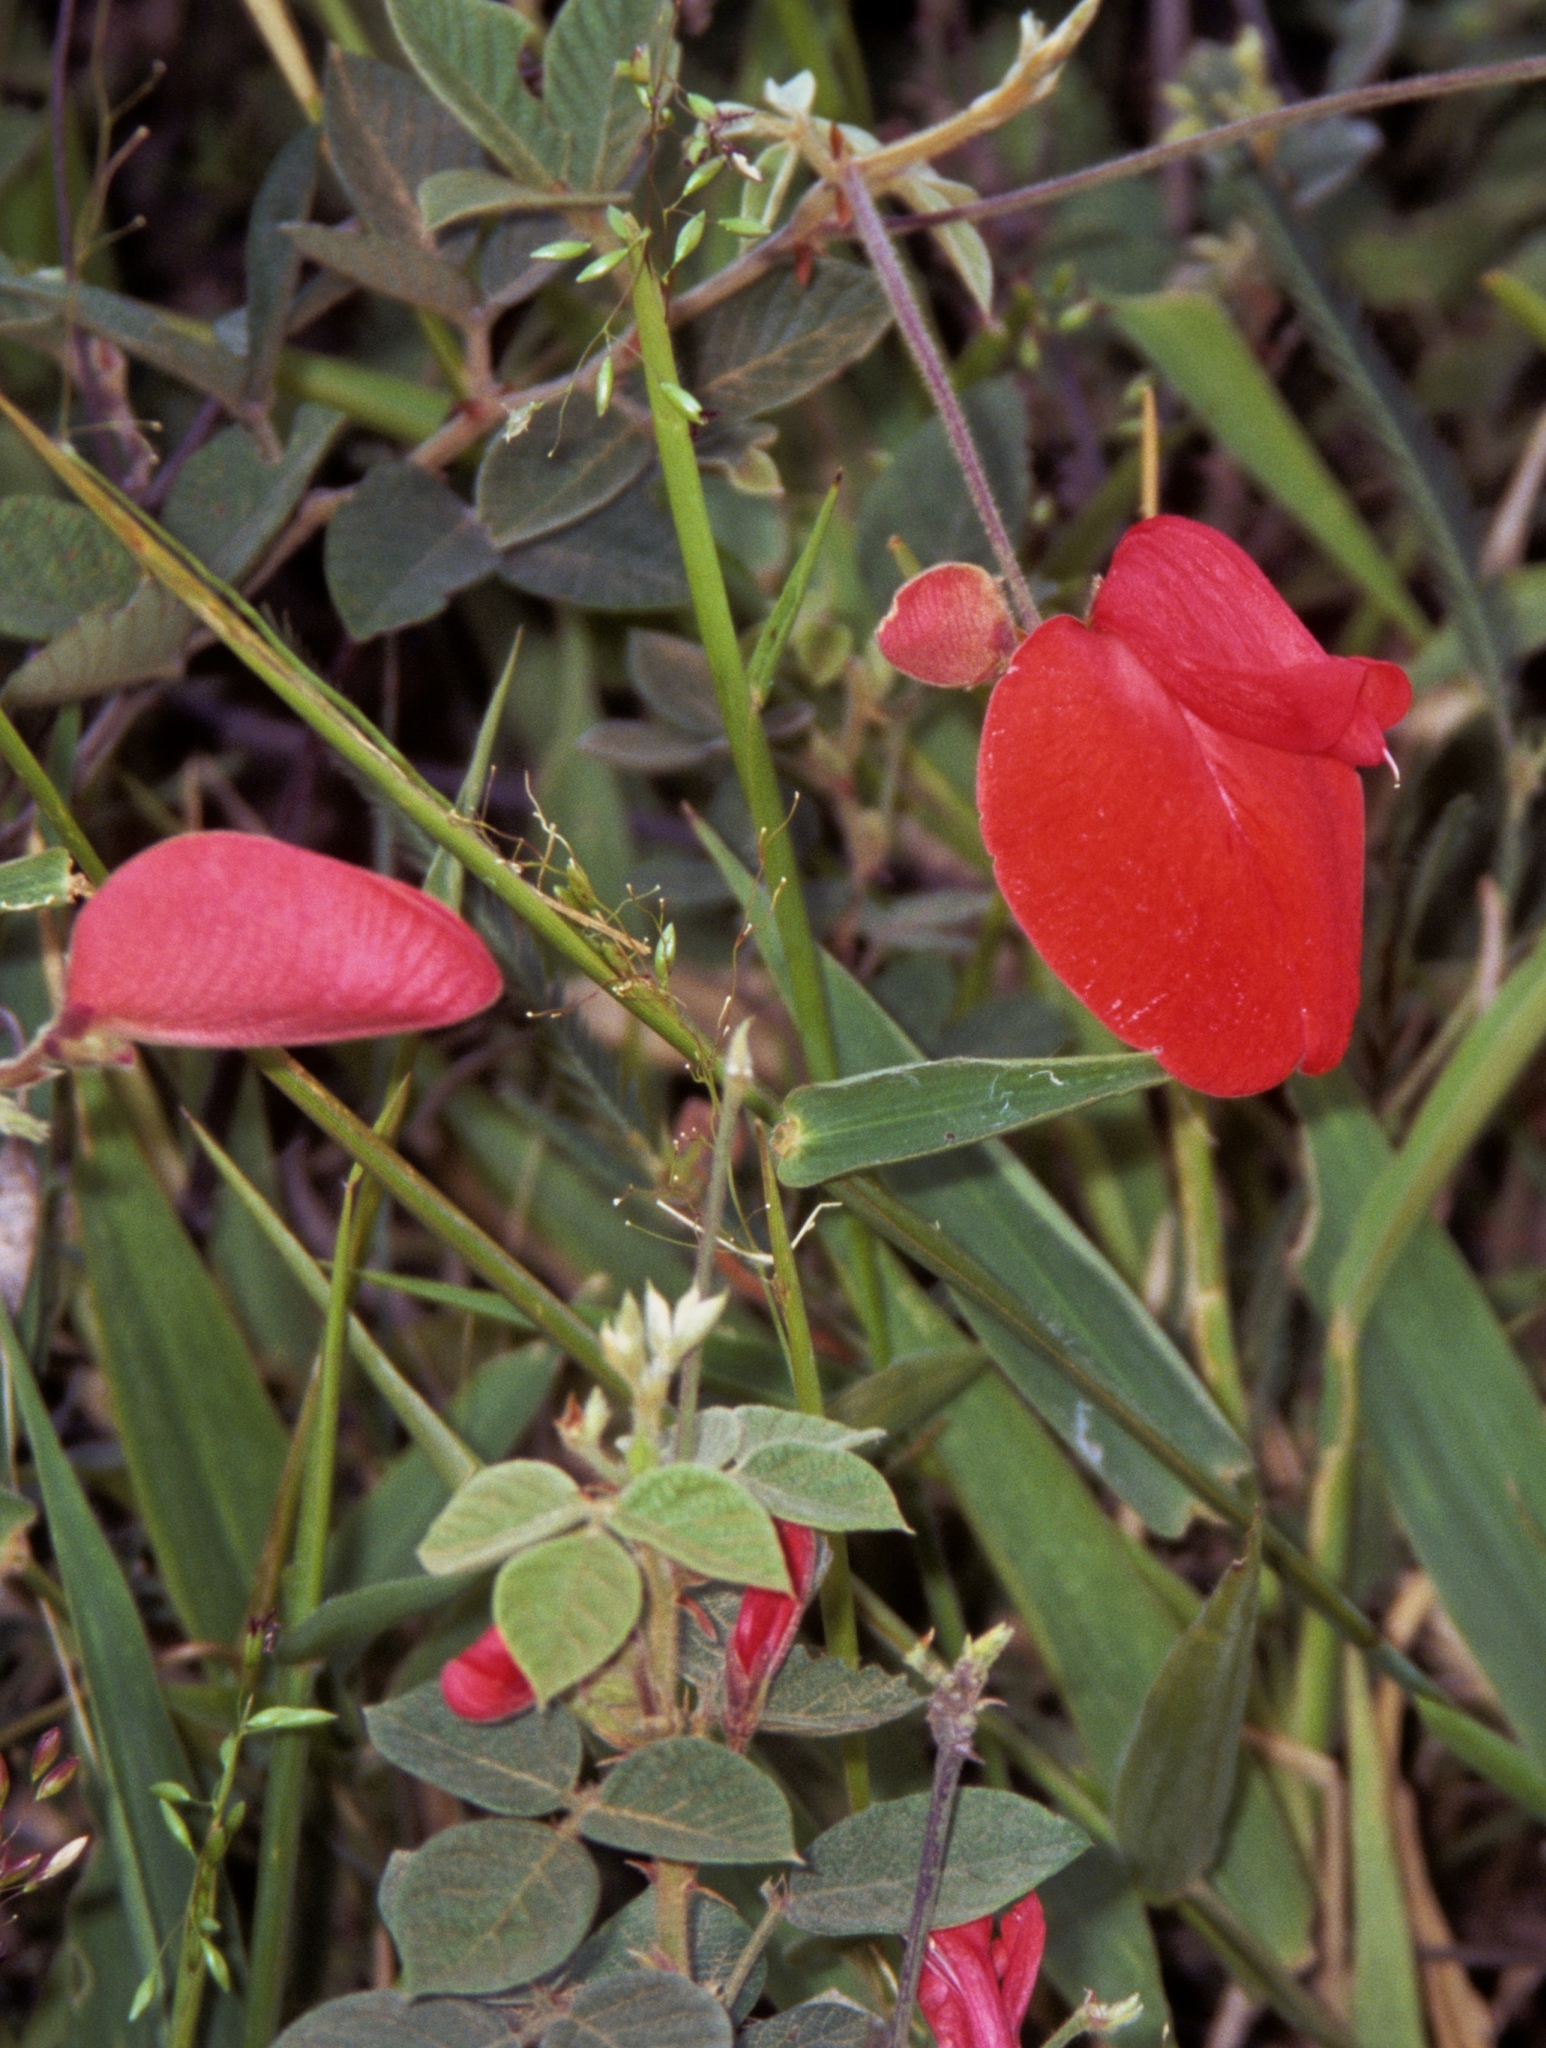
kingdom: Plantae
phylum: Tracheophyta
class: Magnoliopsida
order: Fabales
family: Fabaceae
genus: Periandra
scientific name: Periandra coccinea
